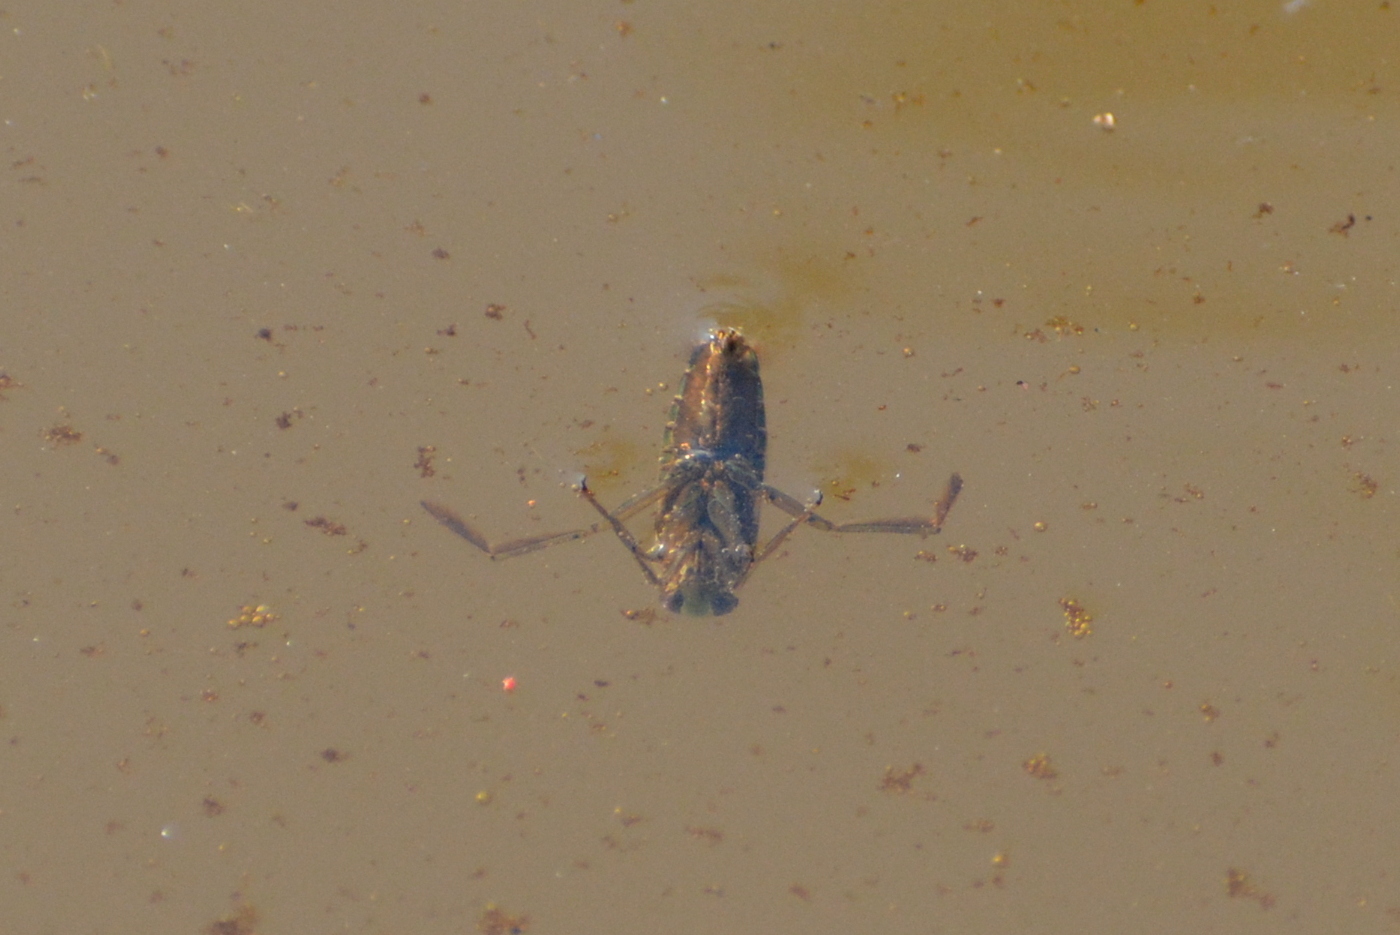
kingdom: Animalia
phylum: Arthropoda
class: Insecta
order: Hemiptera
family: Notonectidae
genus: Notonecta
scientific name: Notonecta
